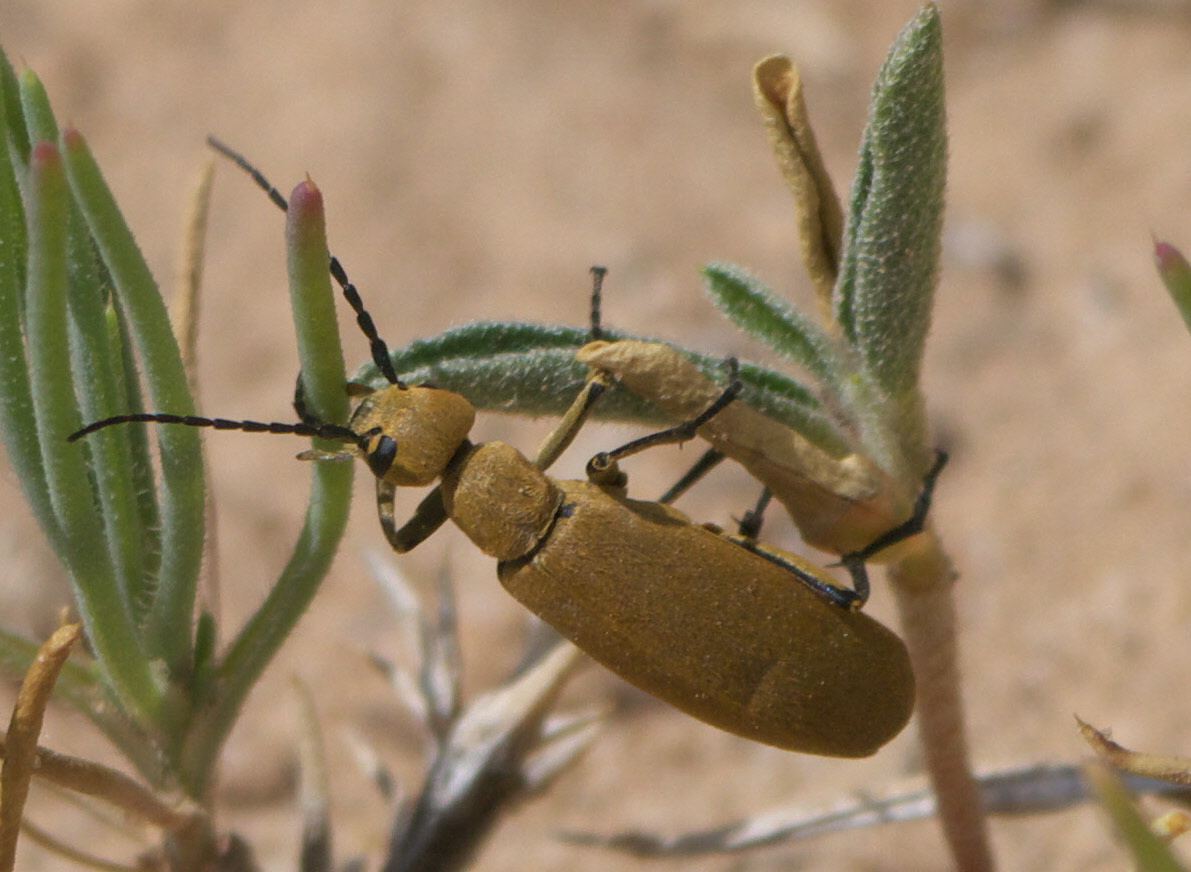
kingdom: Animalia
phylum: Arthropoda
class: Insecta
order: Coleoptera
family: Meloidae
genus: Epicauta
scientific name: Epicauta immaculata
